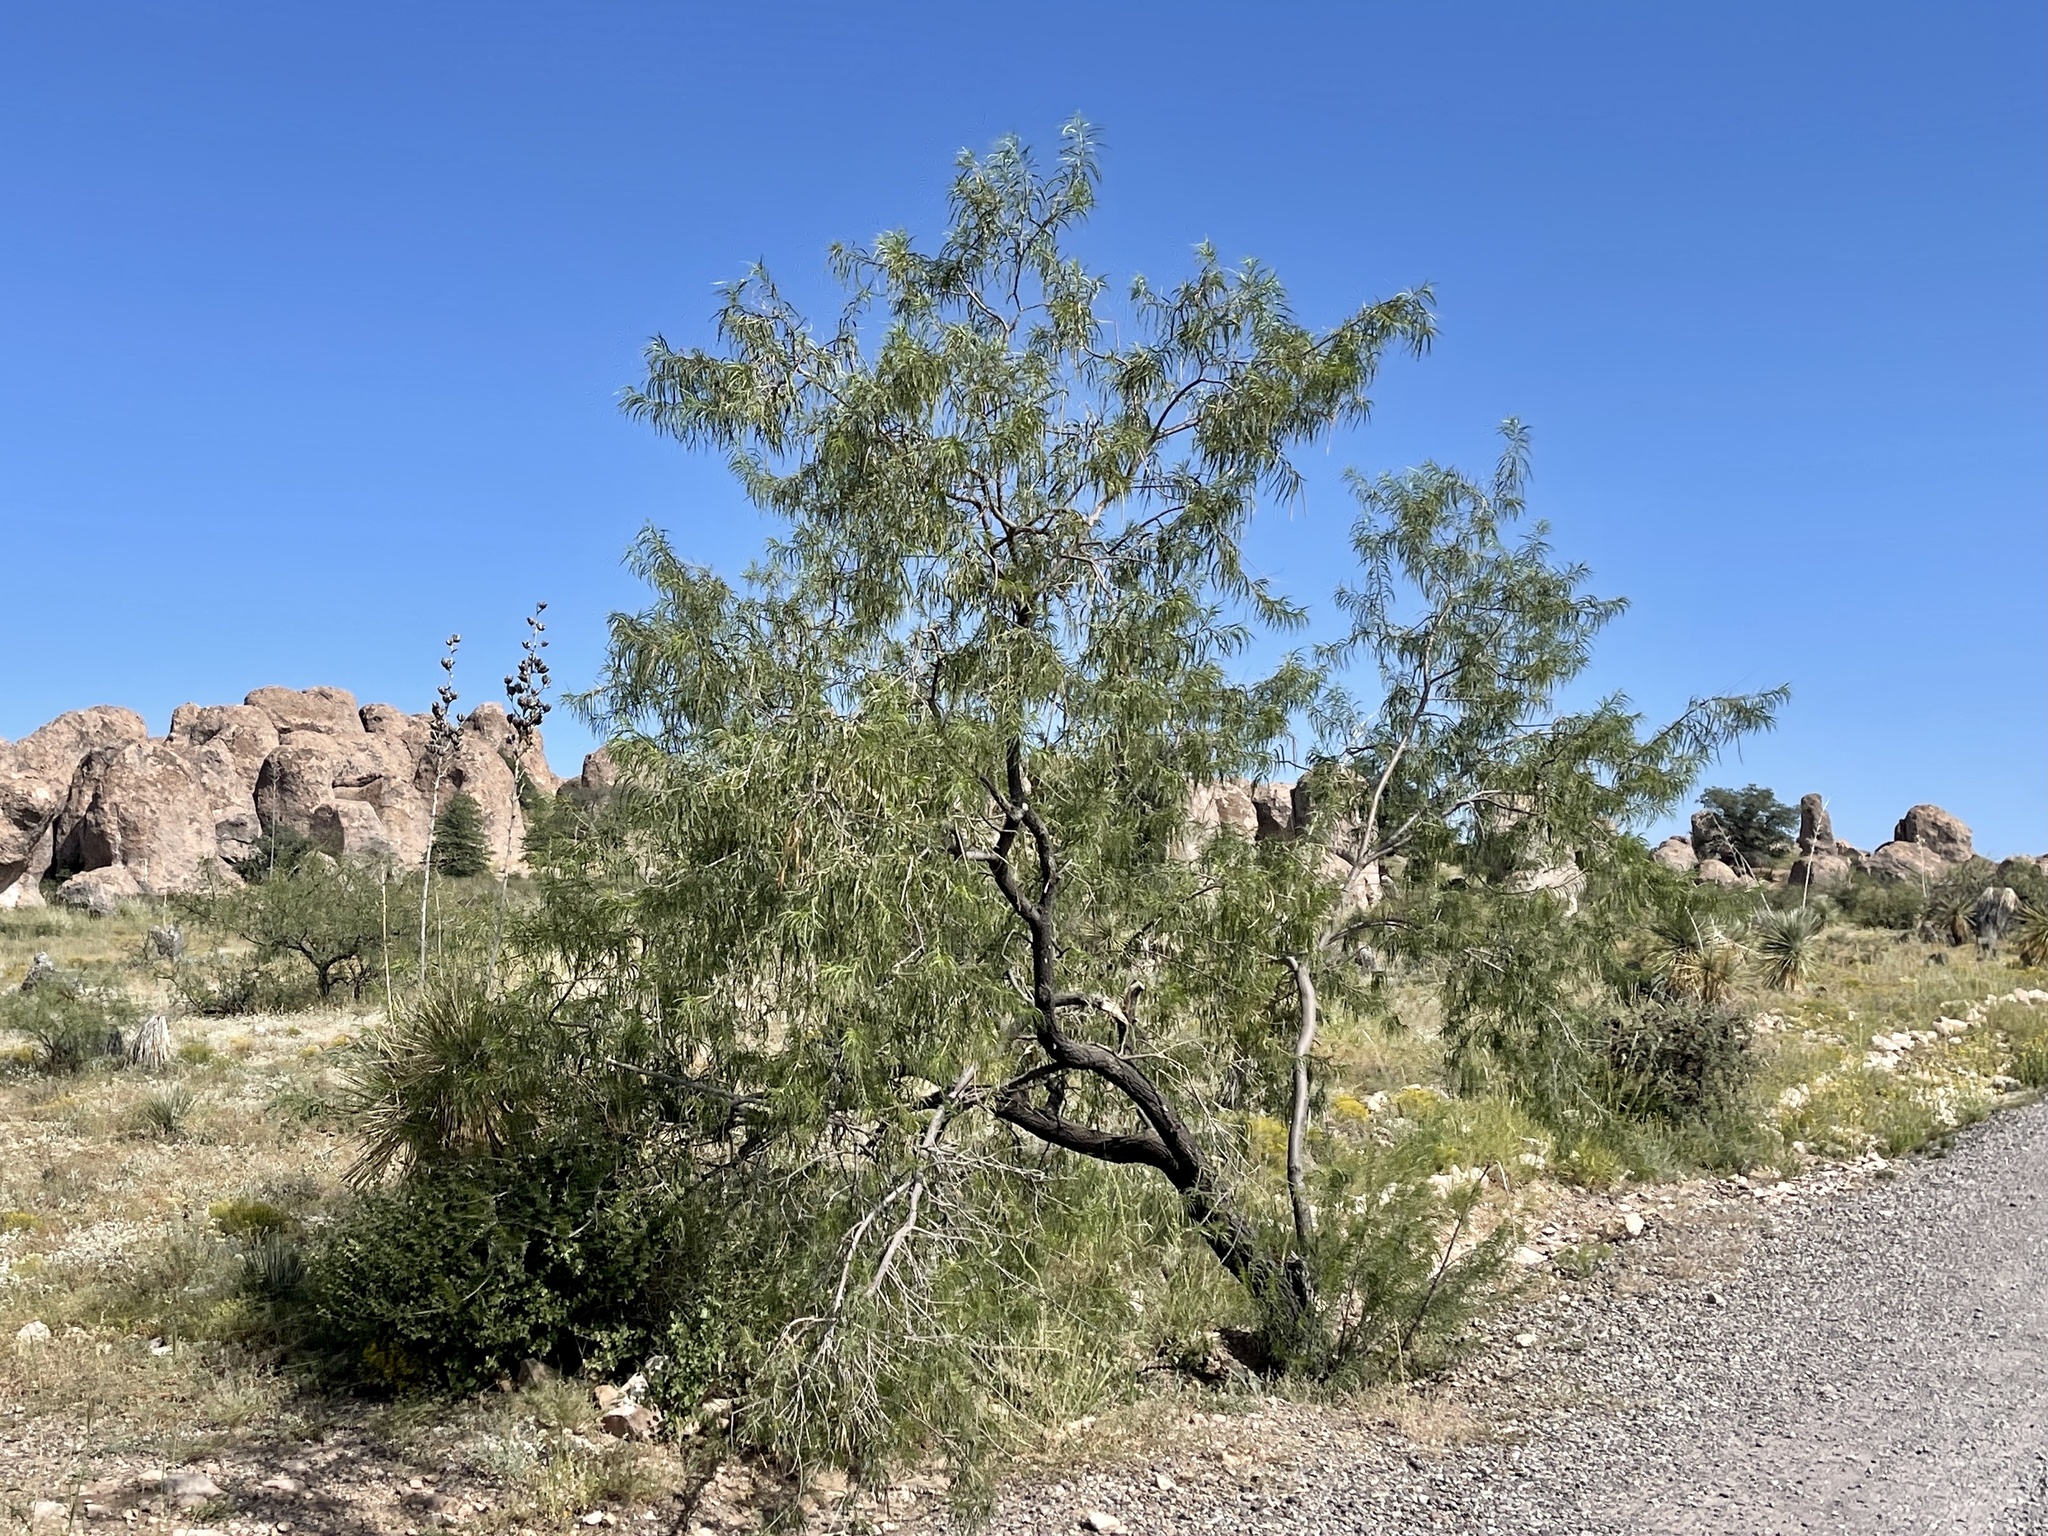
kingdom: Plantae
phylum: Tracheophyta
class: Magnoliopsida
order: Lamiales
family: Bignoniaceae
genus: Chilopsis
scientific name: Chilopsis linearis
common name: Desert-willow
